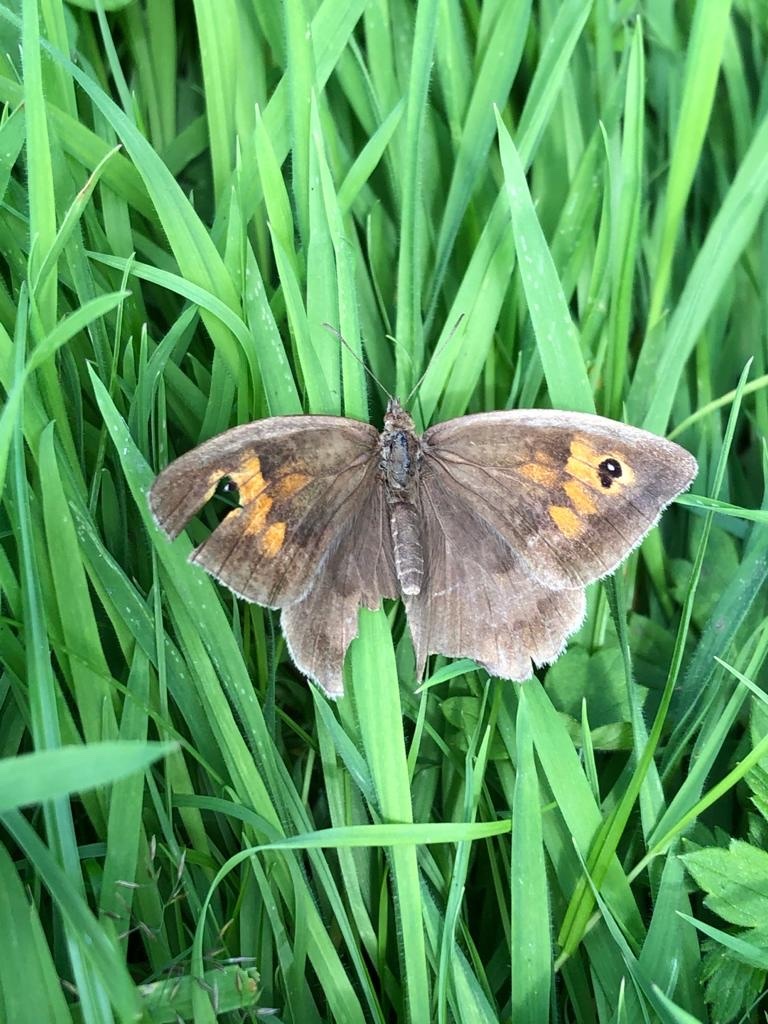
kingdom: Animalia
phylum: Arthropoda
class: Insecta
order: Lepidoptera
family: Nymphalidae
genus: Maniola
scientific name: Maniola jurtina
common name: Meadow brown
